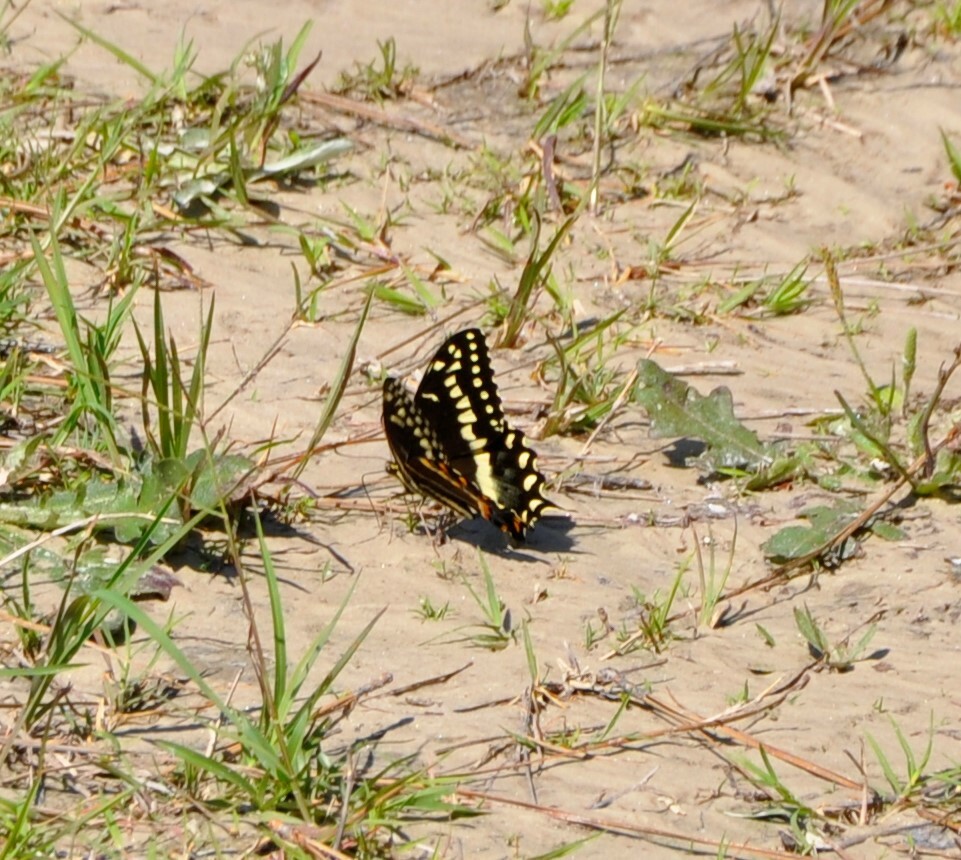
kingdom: Animalia
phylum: Arthropoda
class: Insecta
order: Lepidoptera
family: Papilionidae
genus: Papilio
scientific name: Papilio palamedes
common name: Palamedes swallowtail
